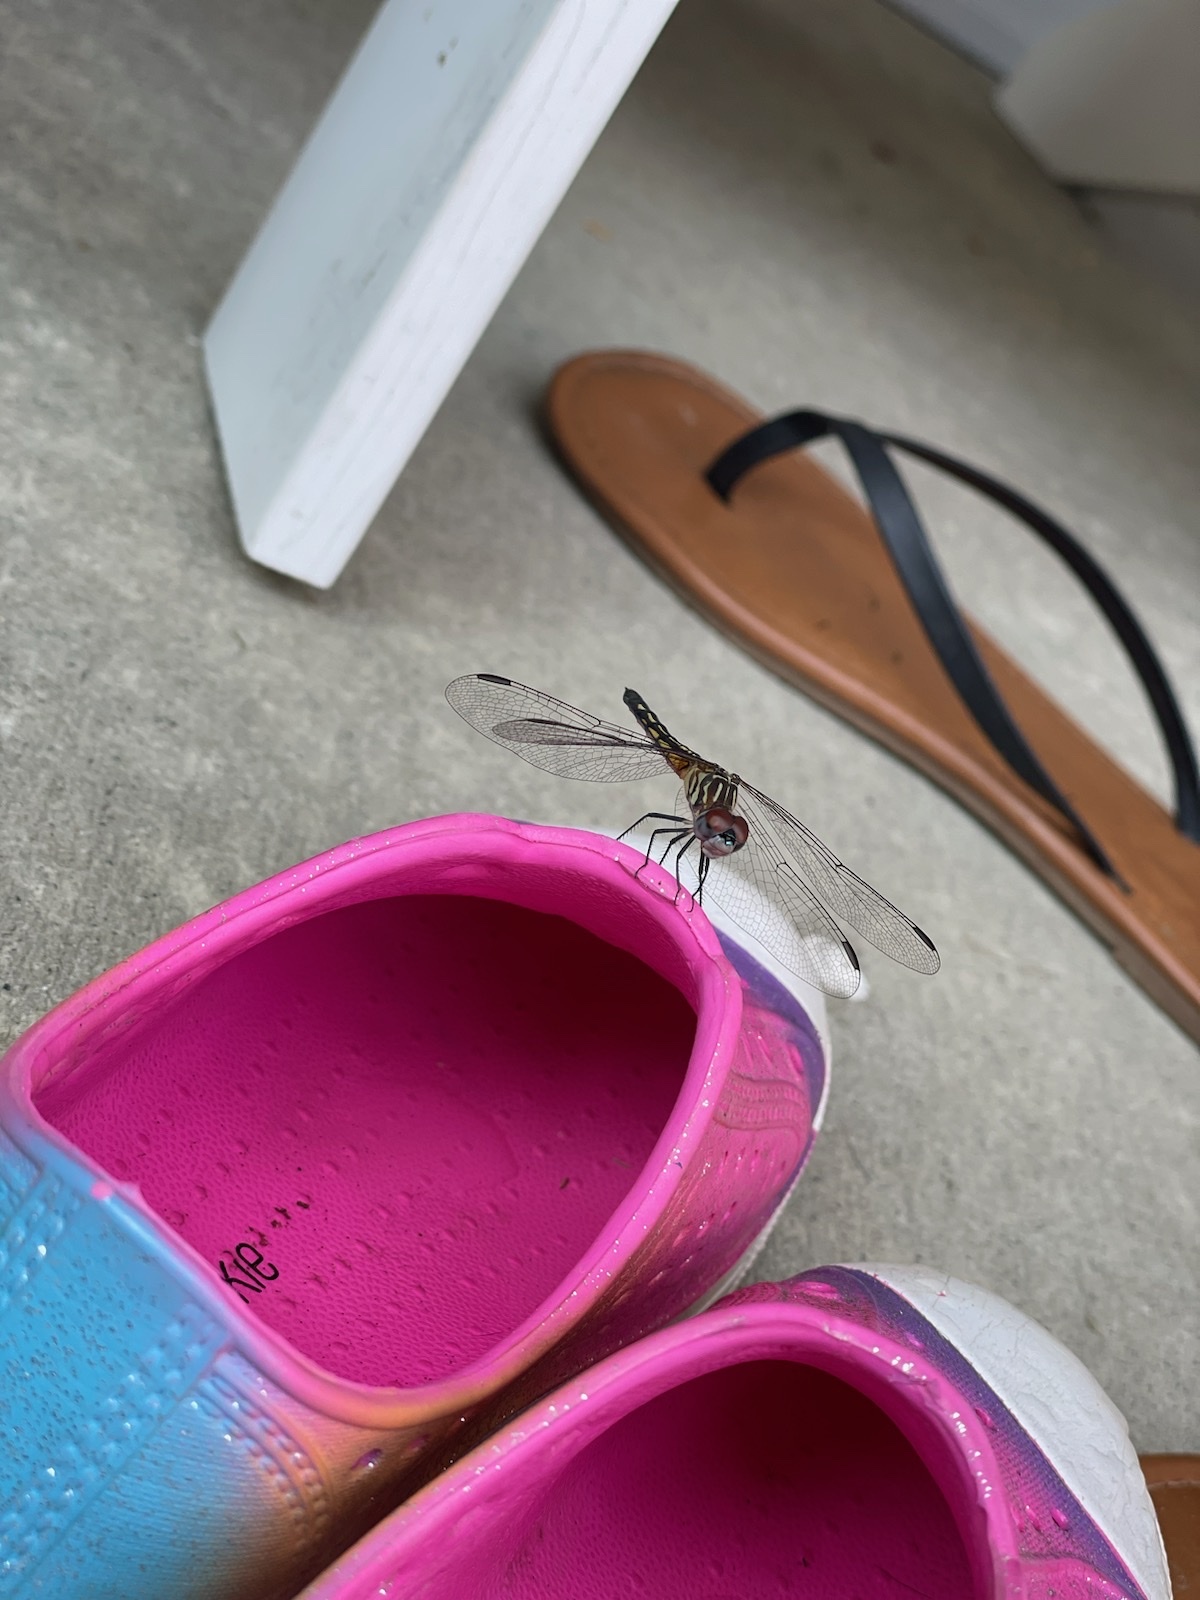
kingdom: Animalia
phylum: Arthropoda
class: Insecta
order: Odonata
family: Libellulidae
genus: Pachydiplax
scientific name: Pachydiplax longipennis
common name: Blue dasher
